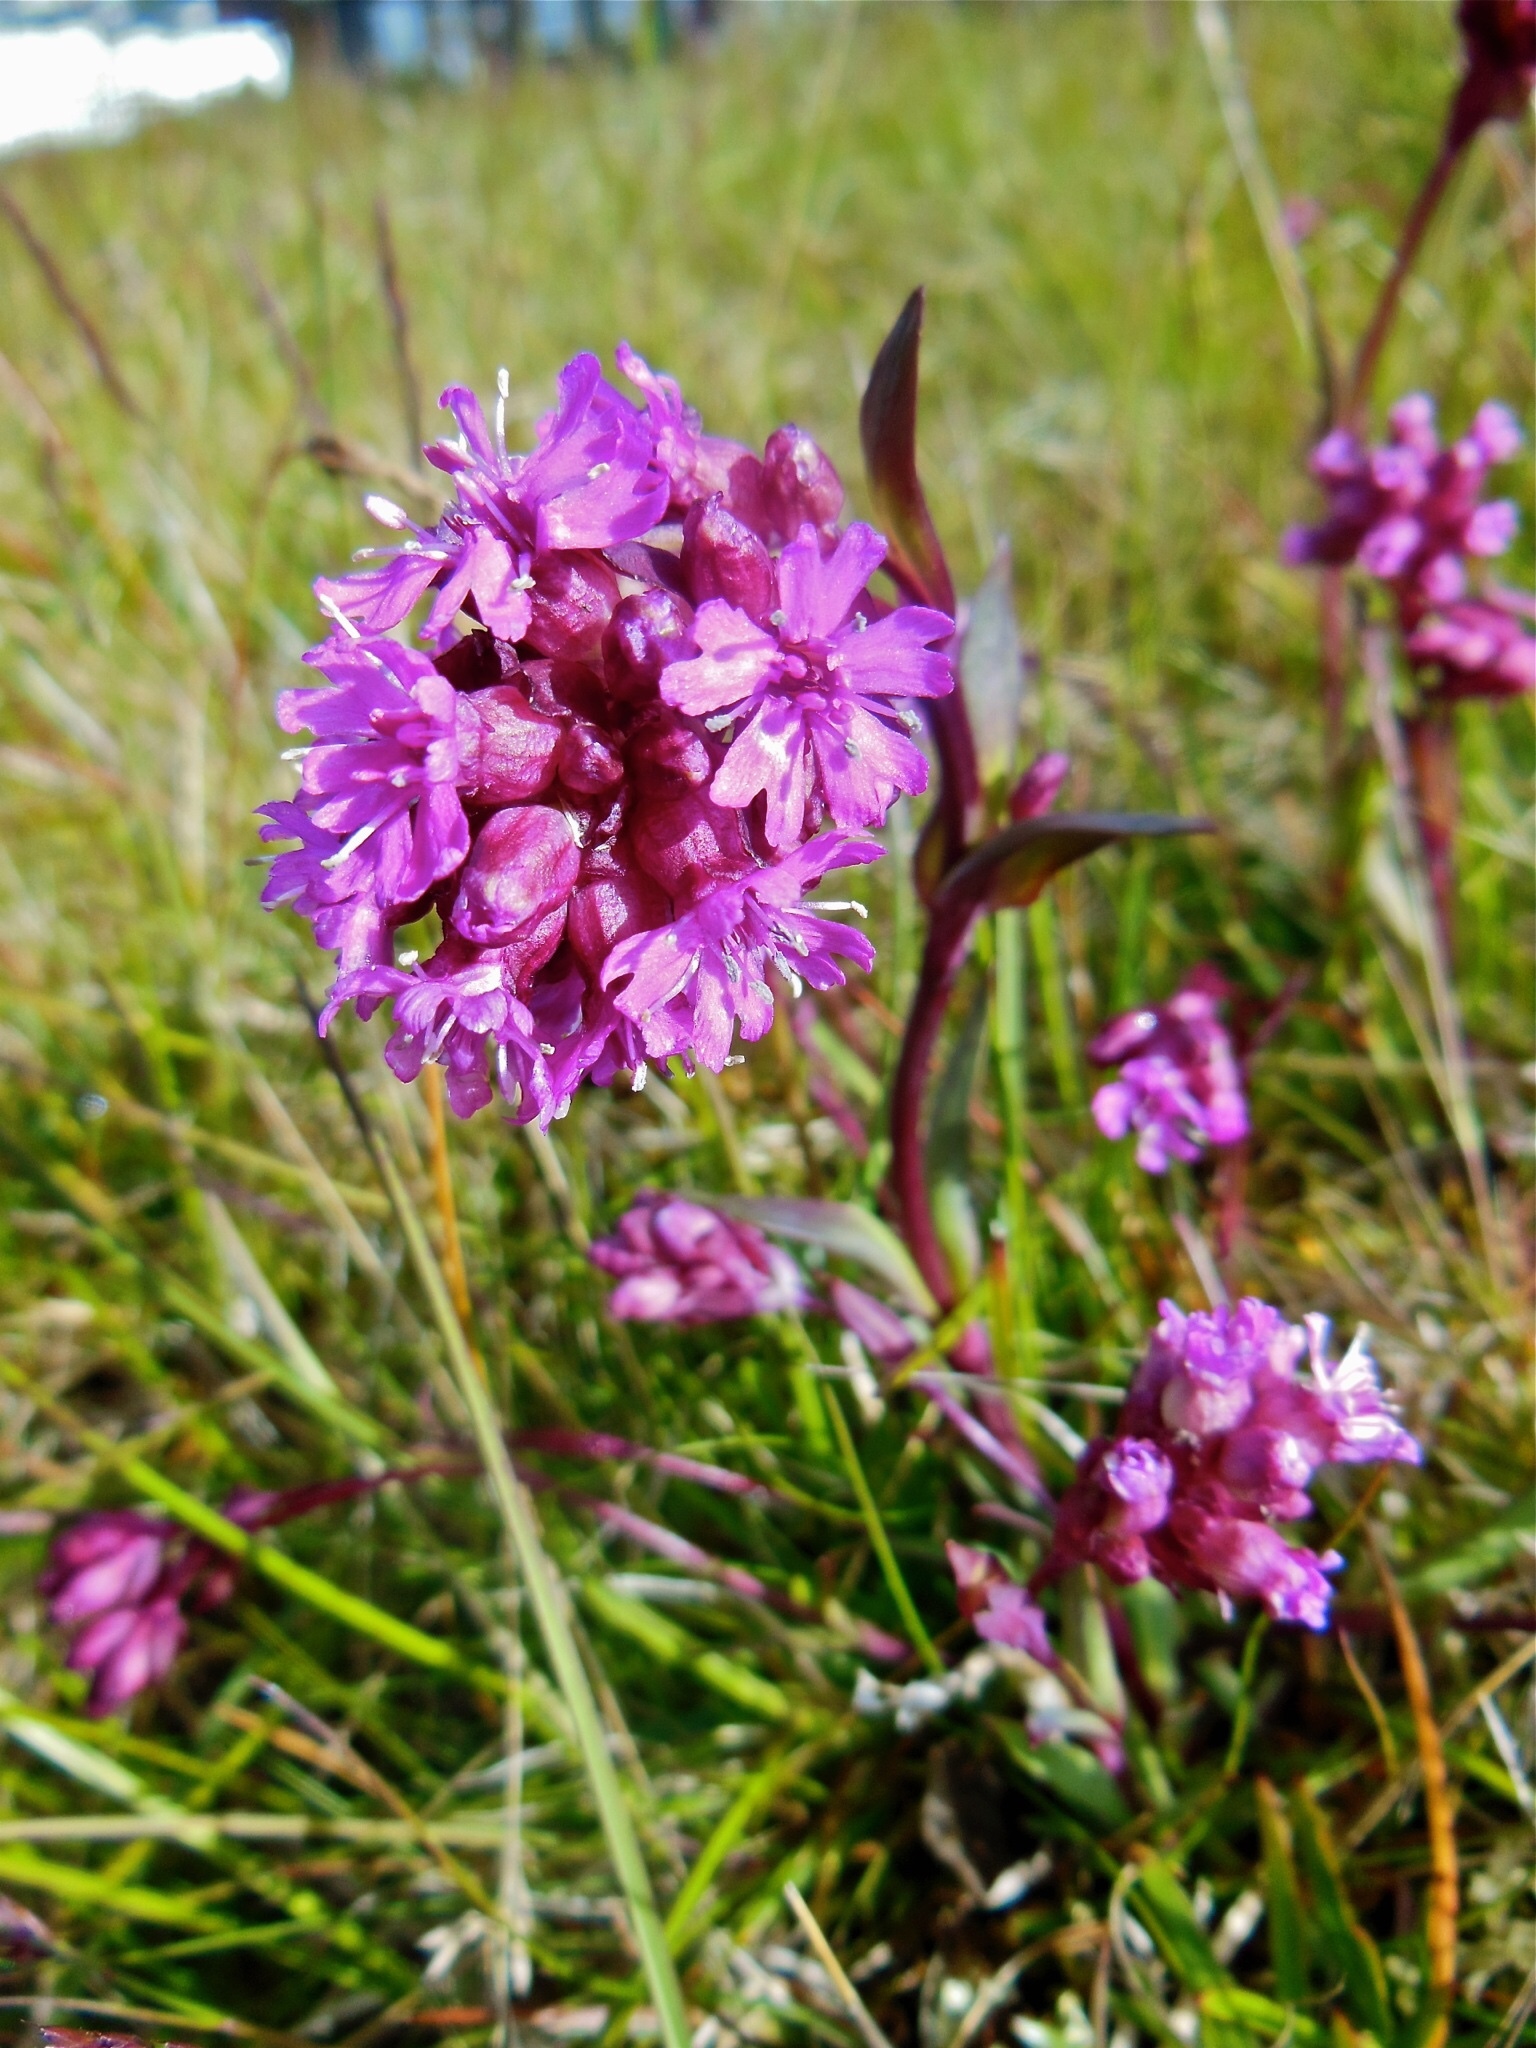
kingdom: Plantae
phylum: Tracheophyta
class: Magnoliopsida
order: Caryophyllales
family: Caryophyllaceae
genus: Viscaria
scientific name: Viscaria alpina
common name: Alpine campion
